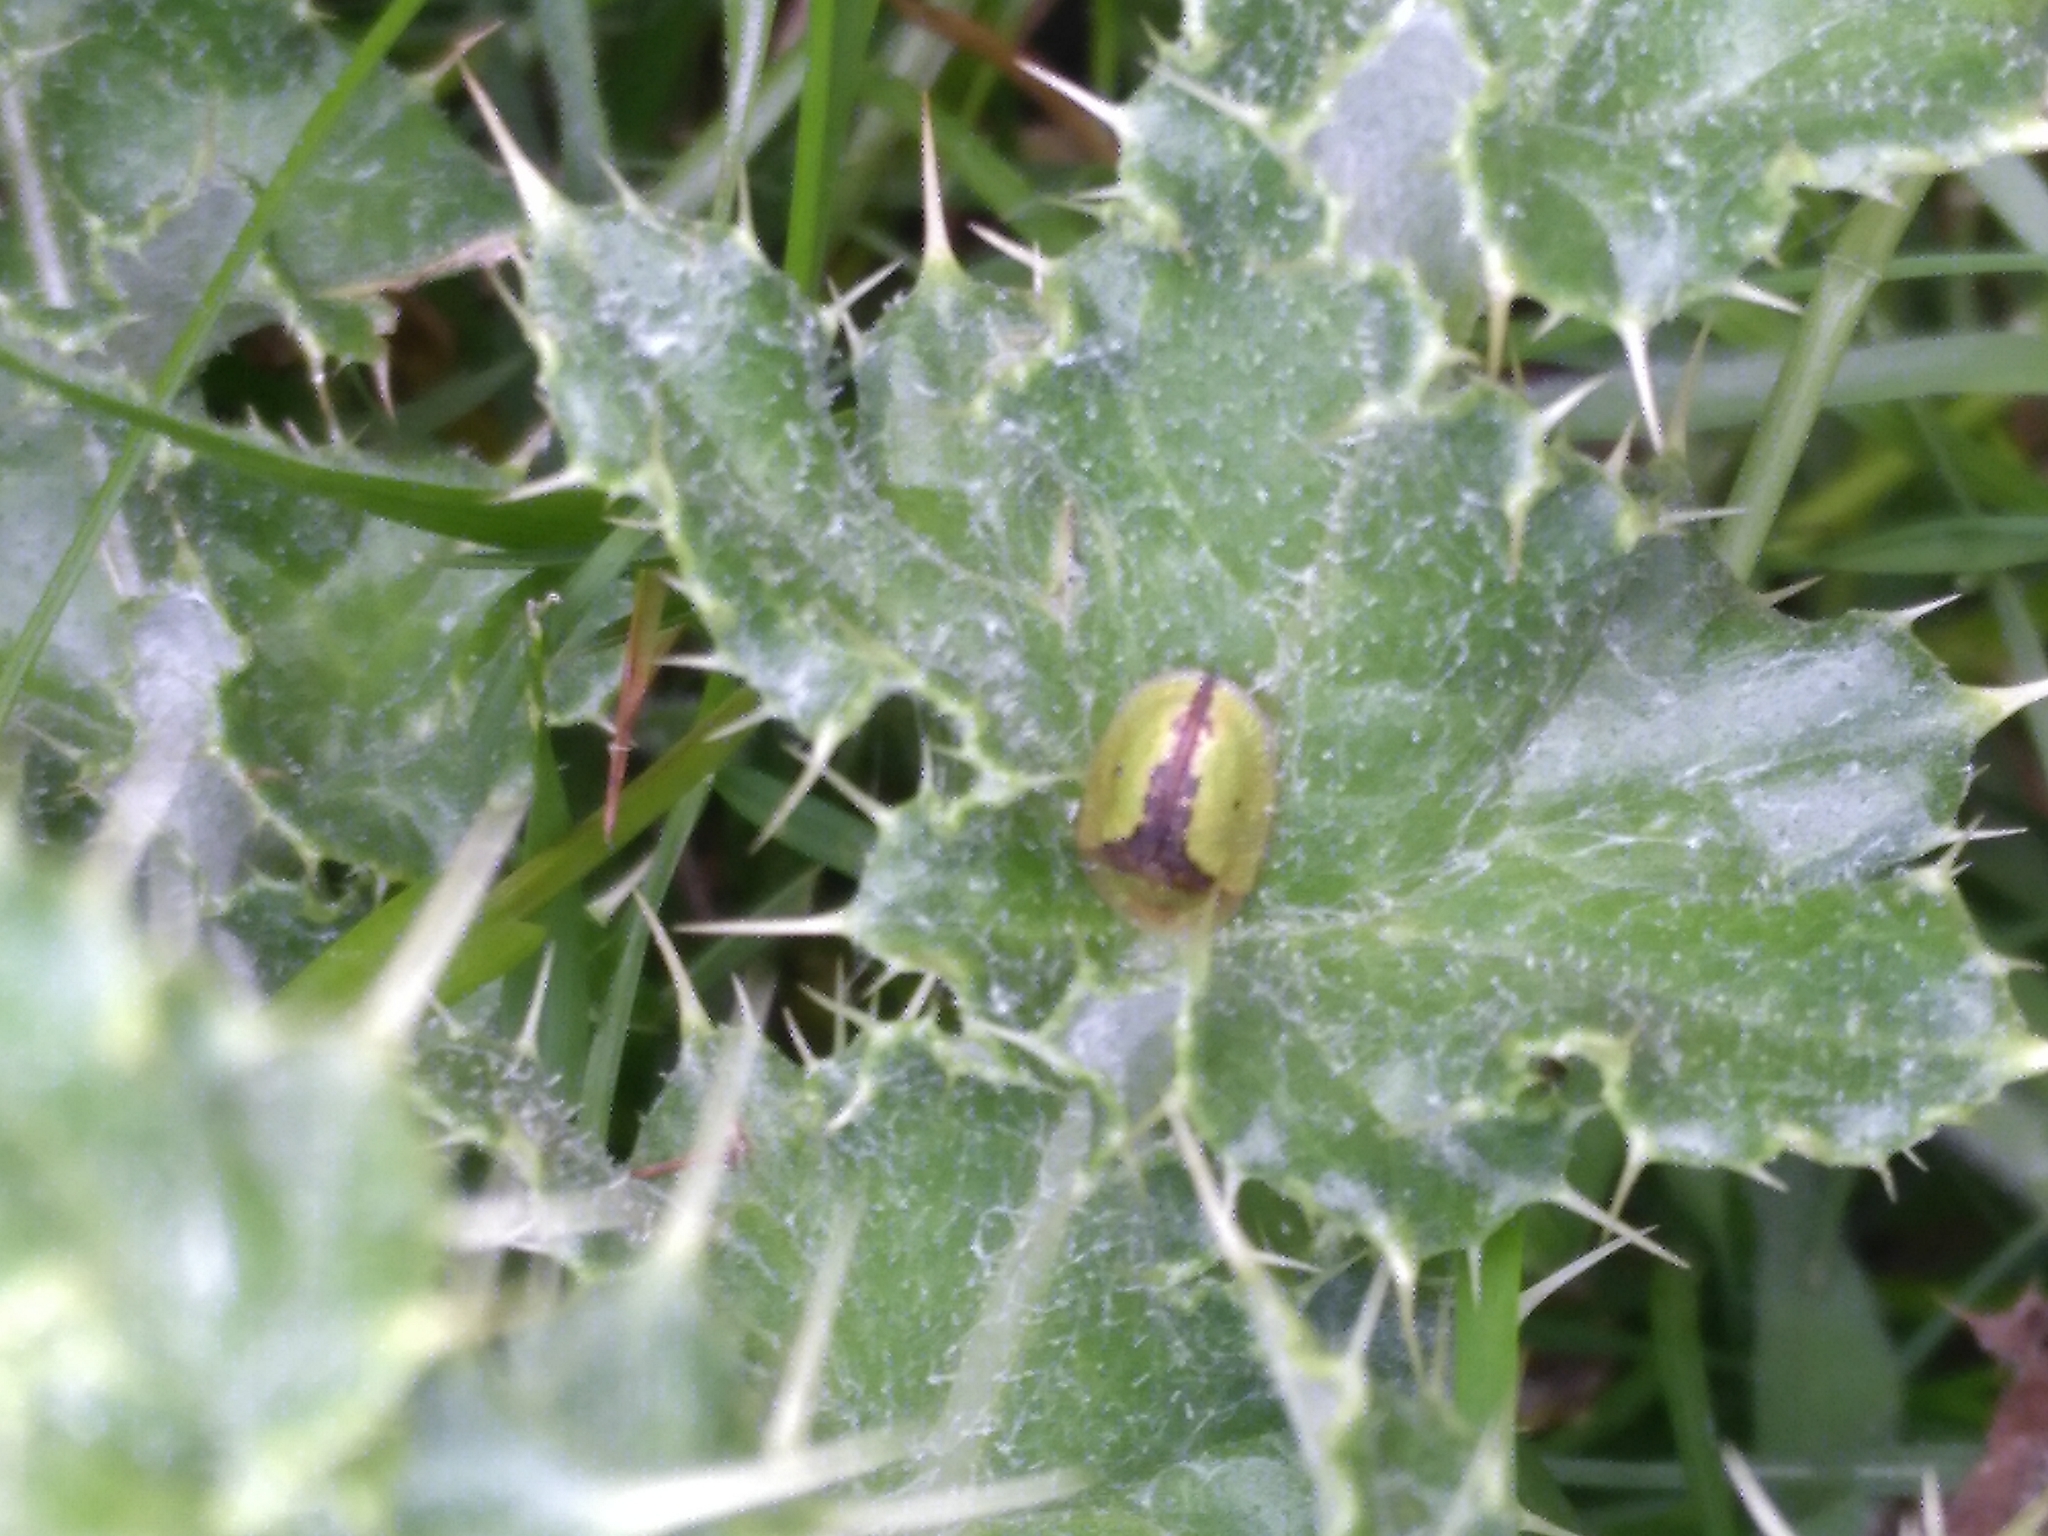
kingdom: Animalia
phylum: Arthropoda
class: Insecta
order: Coleoptera
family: Chrysomelidae
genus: Cassida
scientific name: Cassida vibex
